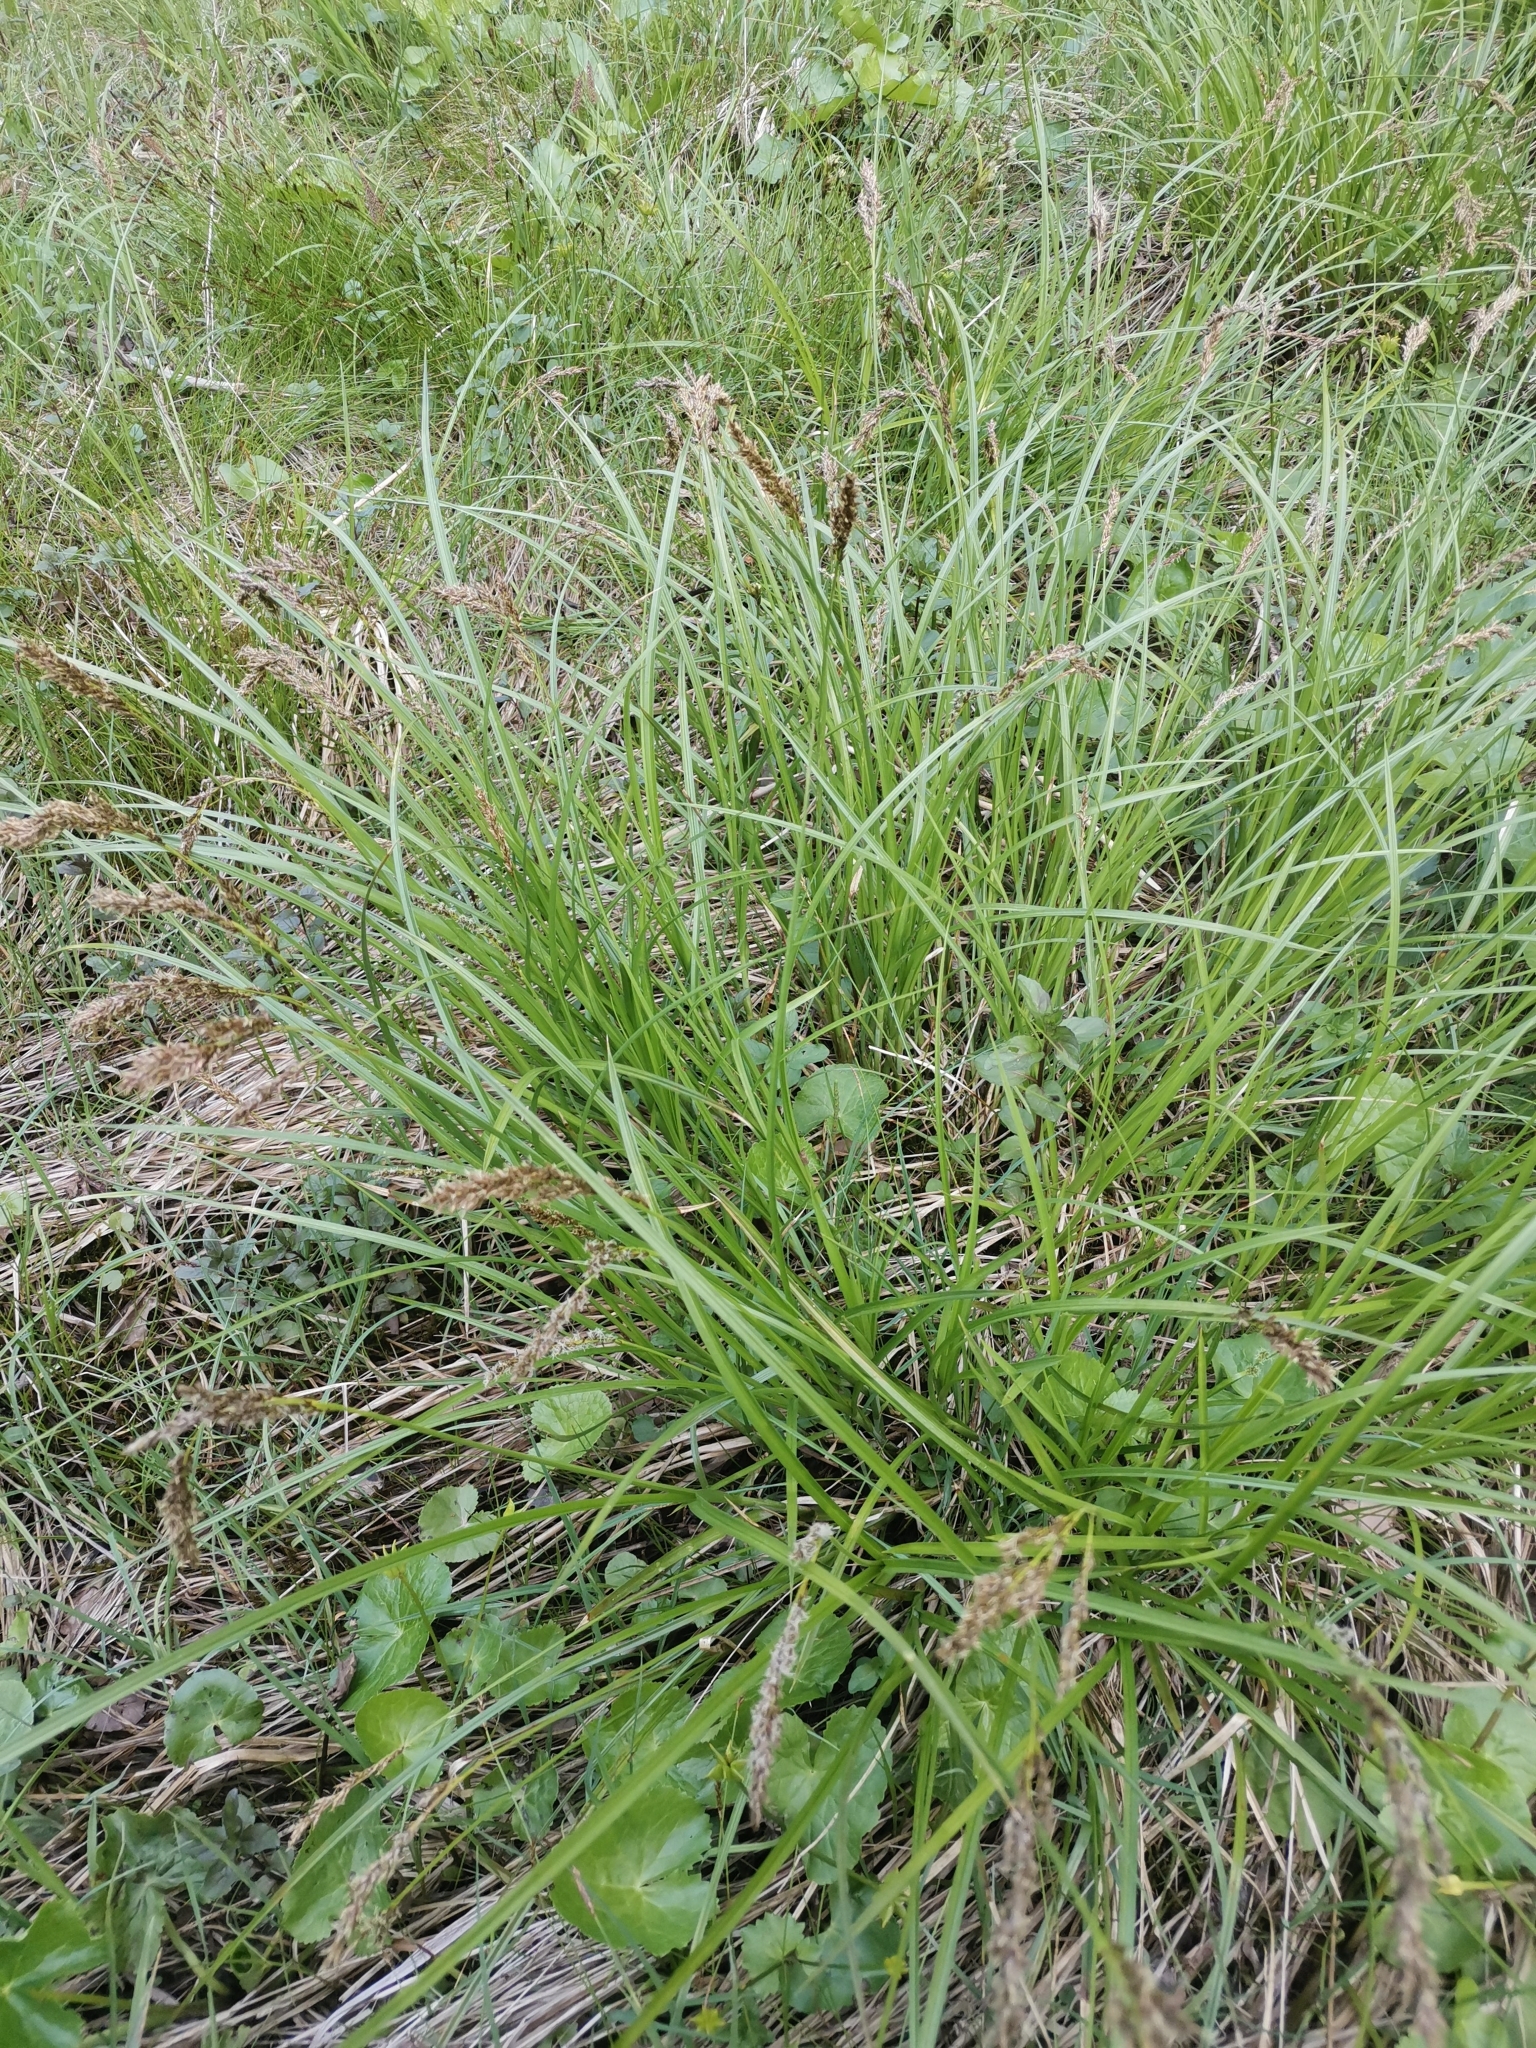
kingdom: Plantae
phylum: Tracheophyta
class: Liliopsida
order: Poales
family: Cyperaceae
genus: Carex
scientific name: Carex paniculata
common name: Greater tussock-sedge
